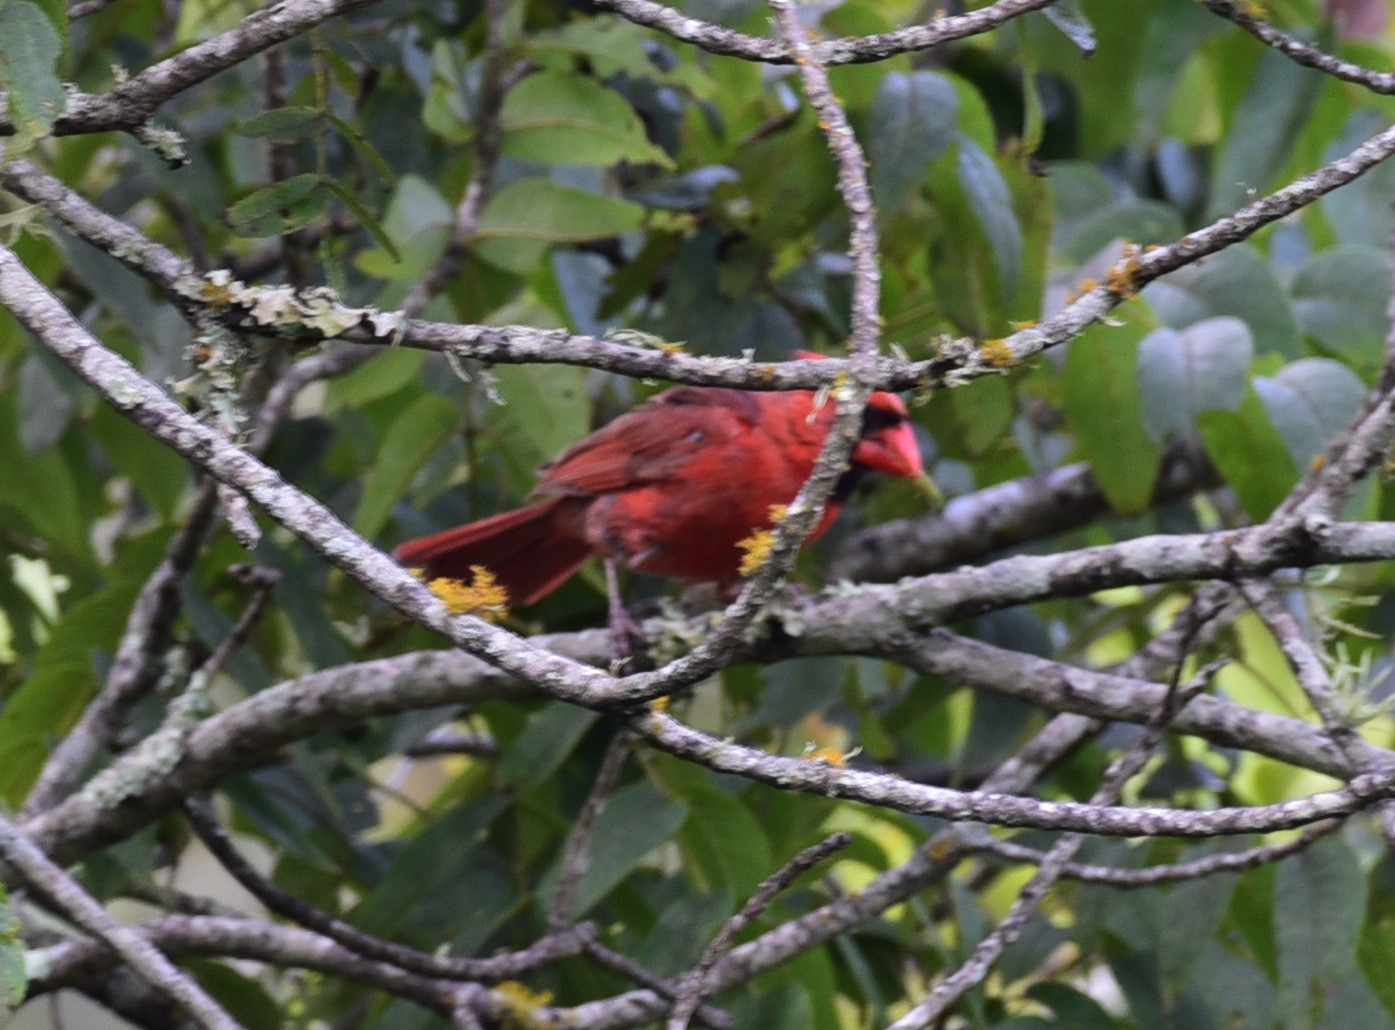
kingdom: Animalia
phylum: Chordata
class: Aves
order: Passeriformes
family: Cardinalidae
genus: Cardinalis
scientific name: Cardinalis cardinalis
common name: Northern cardinal
